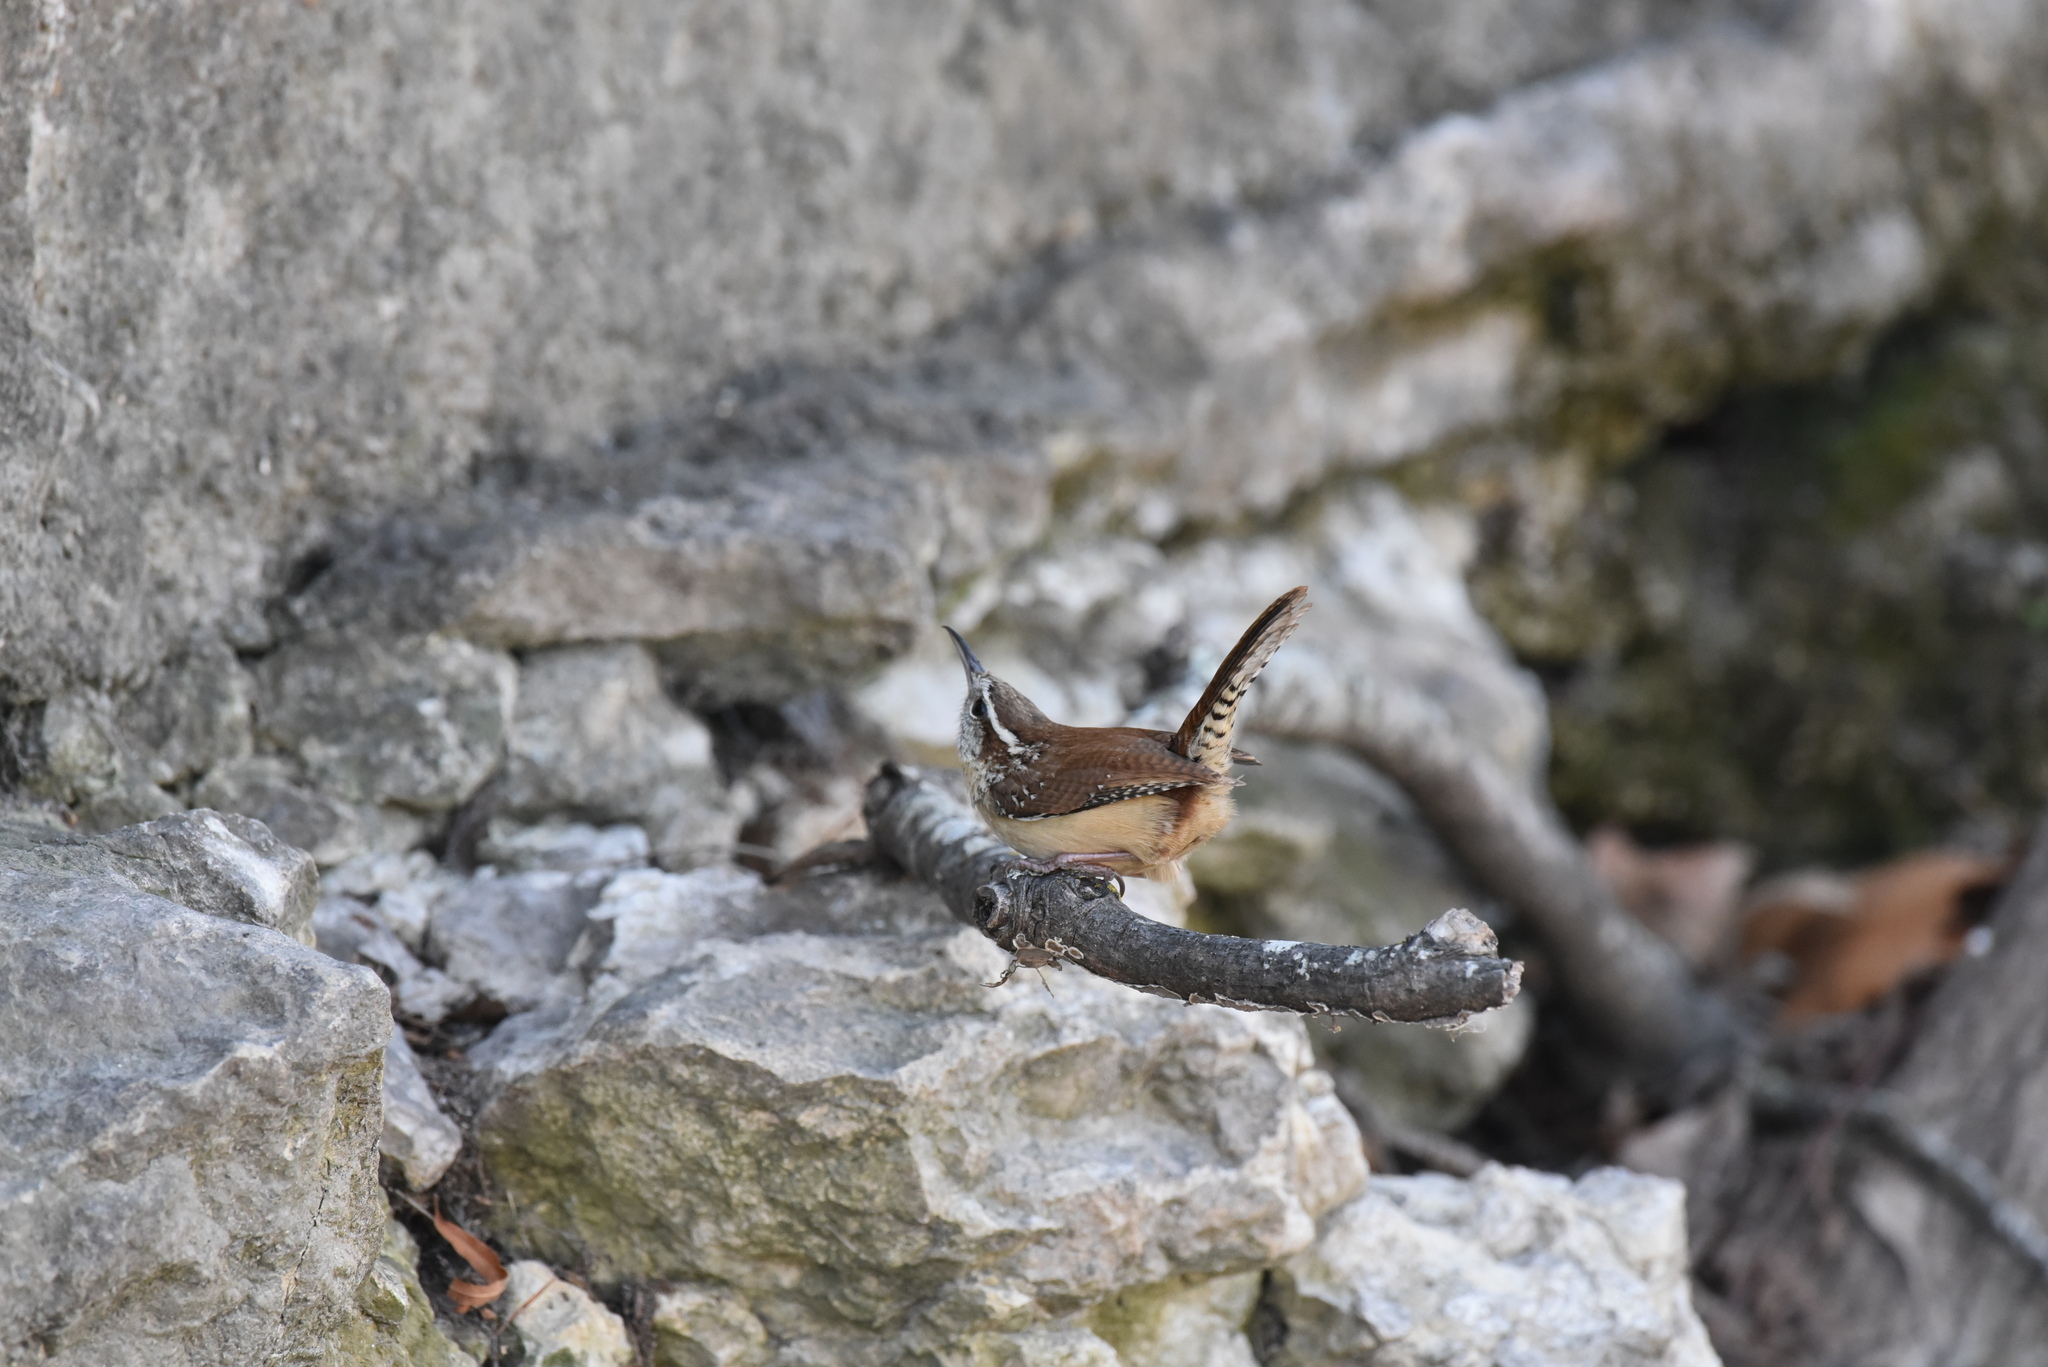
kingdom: Animalia
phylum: Chordata
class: Aves
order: Passeriformes
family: Troglodytidae
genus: Thryothorus
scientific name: Thryothorus ludovicianus
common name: Carolina wren
